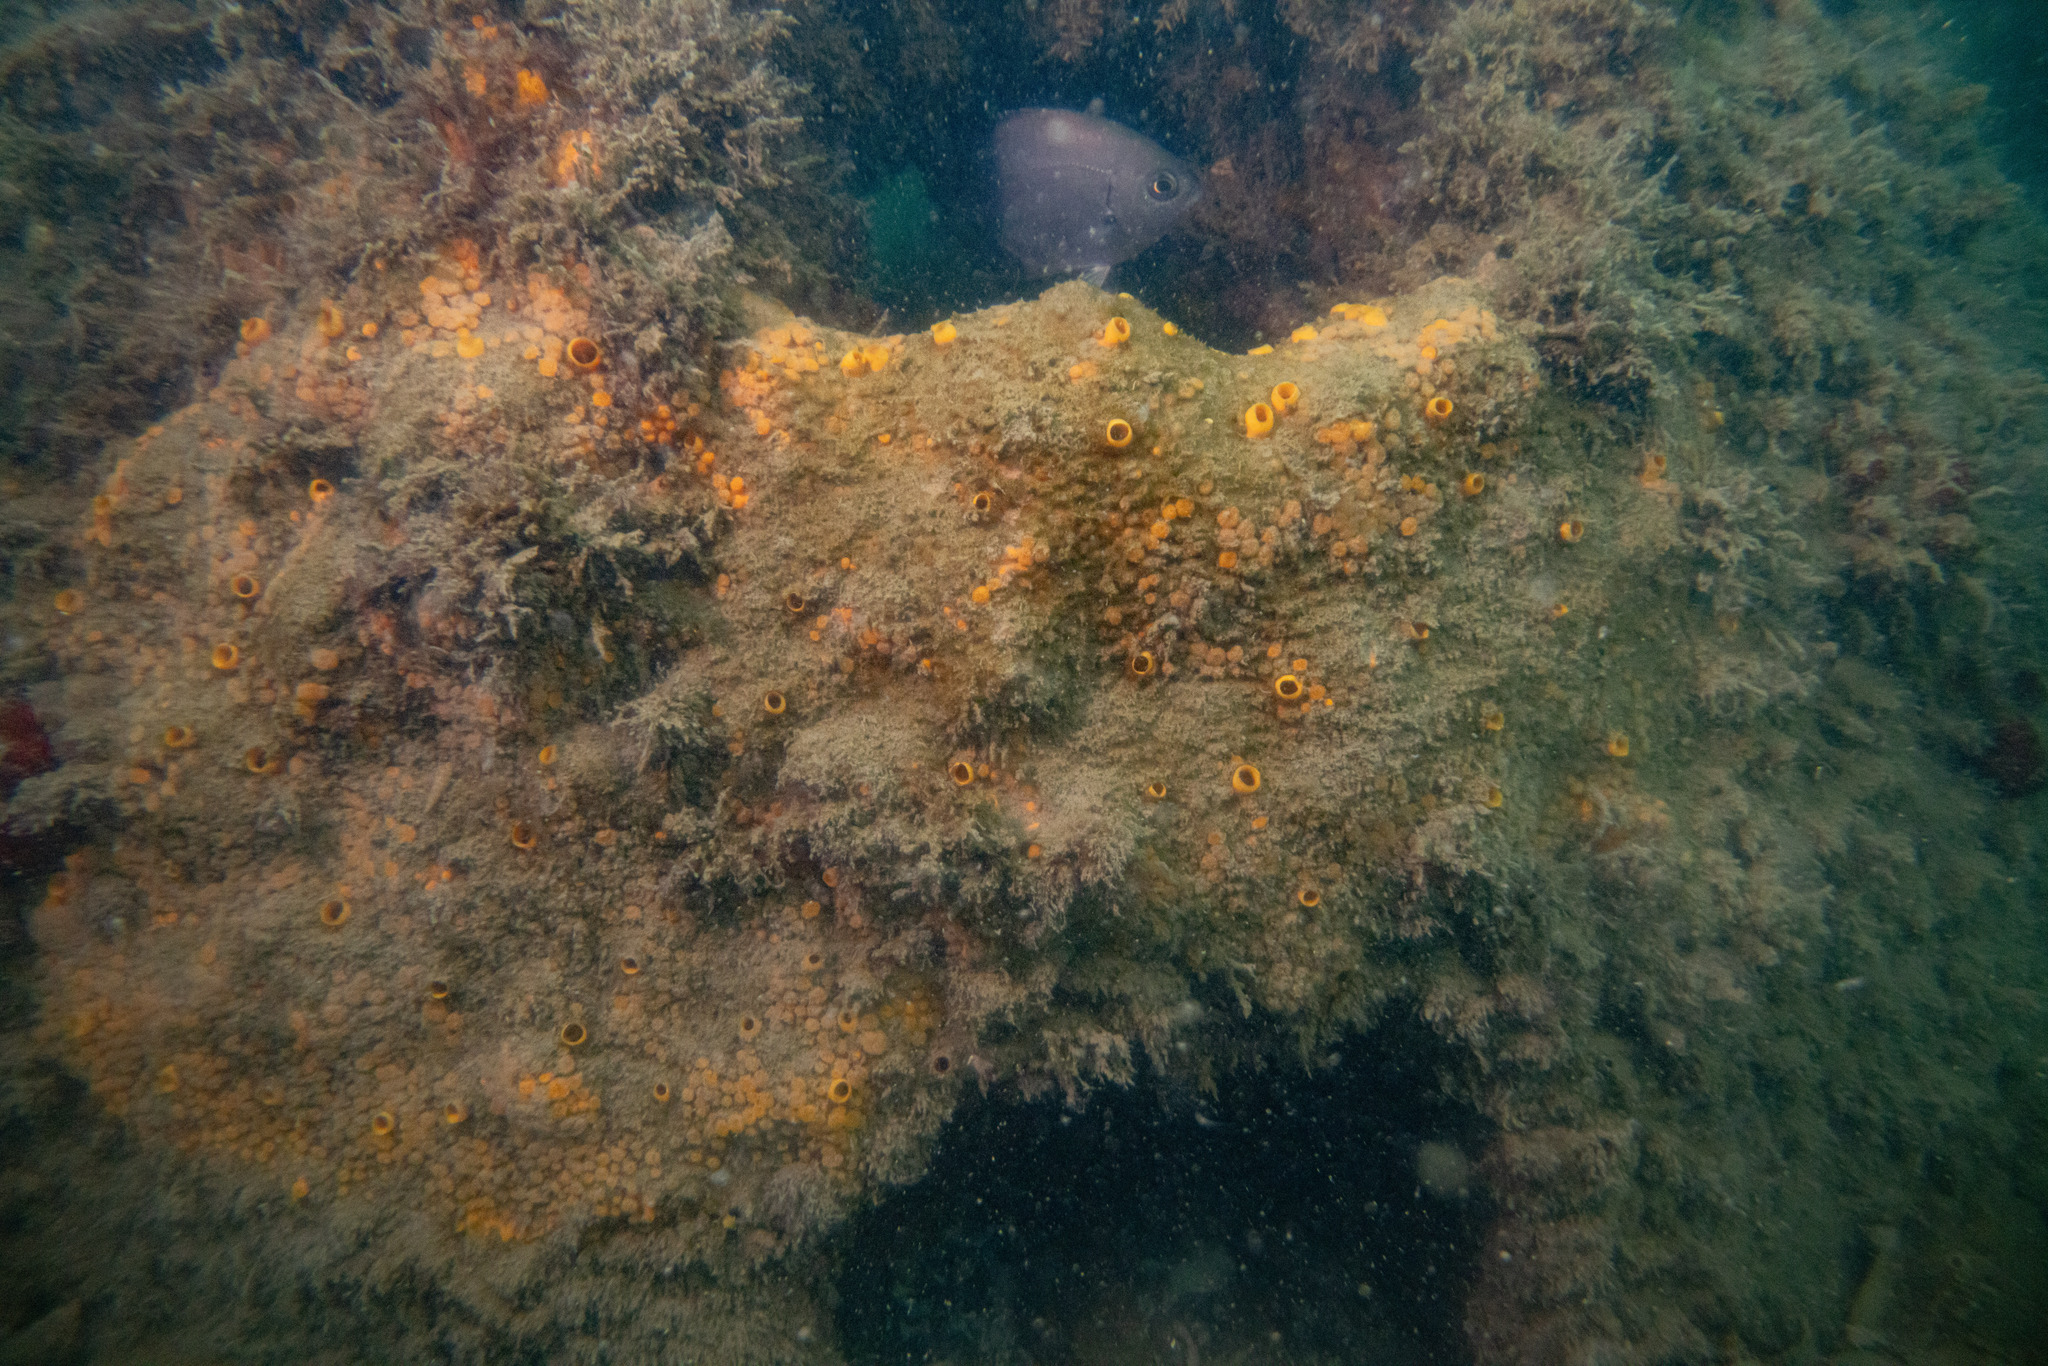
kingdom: Animalia
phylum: Porifera
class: Demospongiae
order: Clionaida
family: Clionaidae
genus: Cliona
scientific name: Cliona celata
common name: Boring sponge
